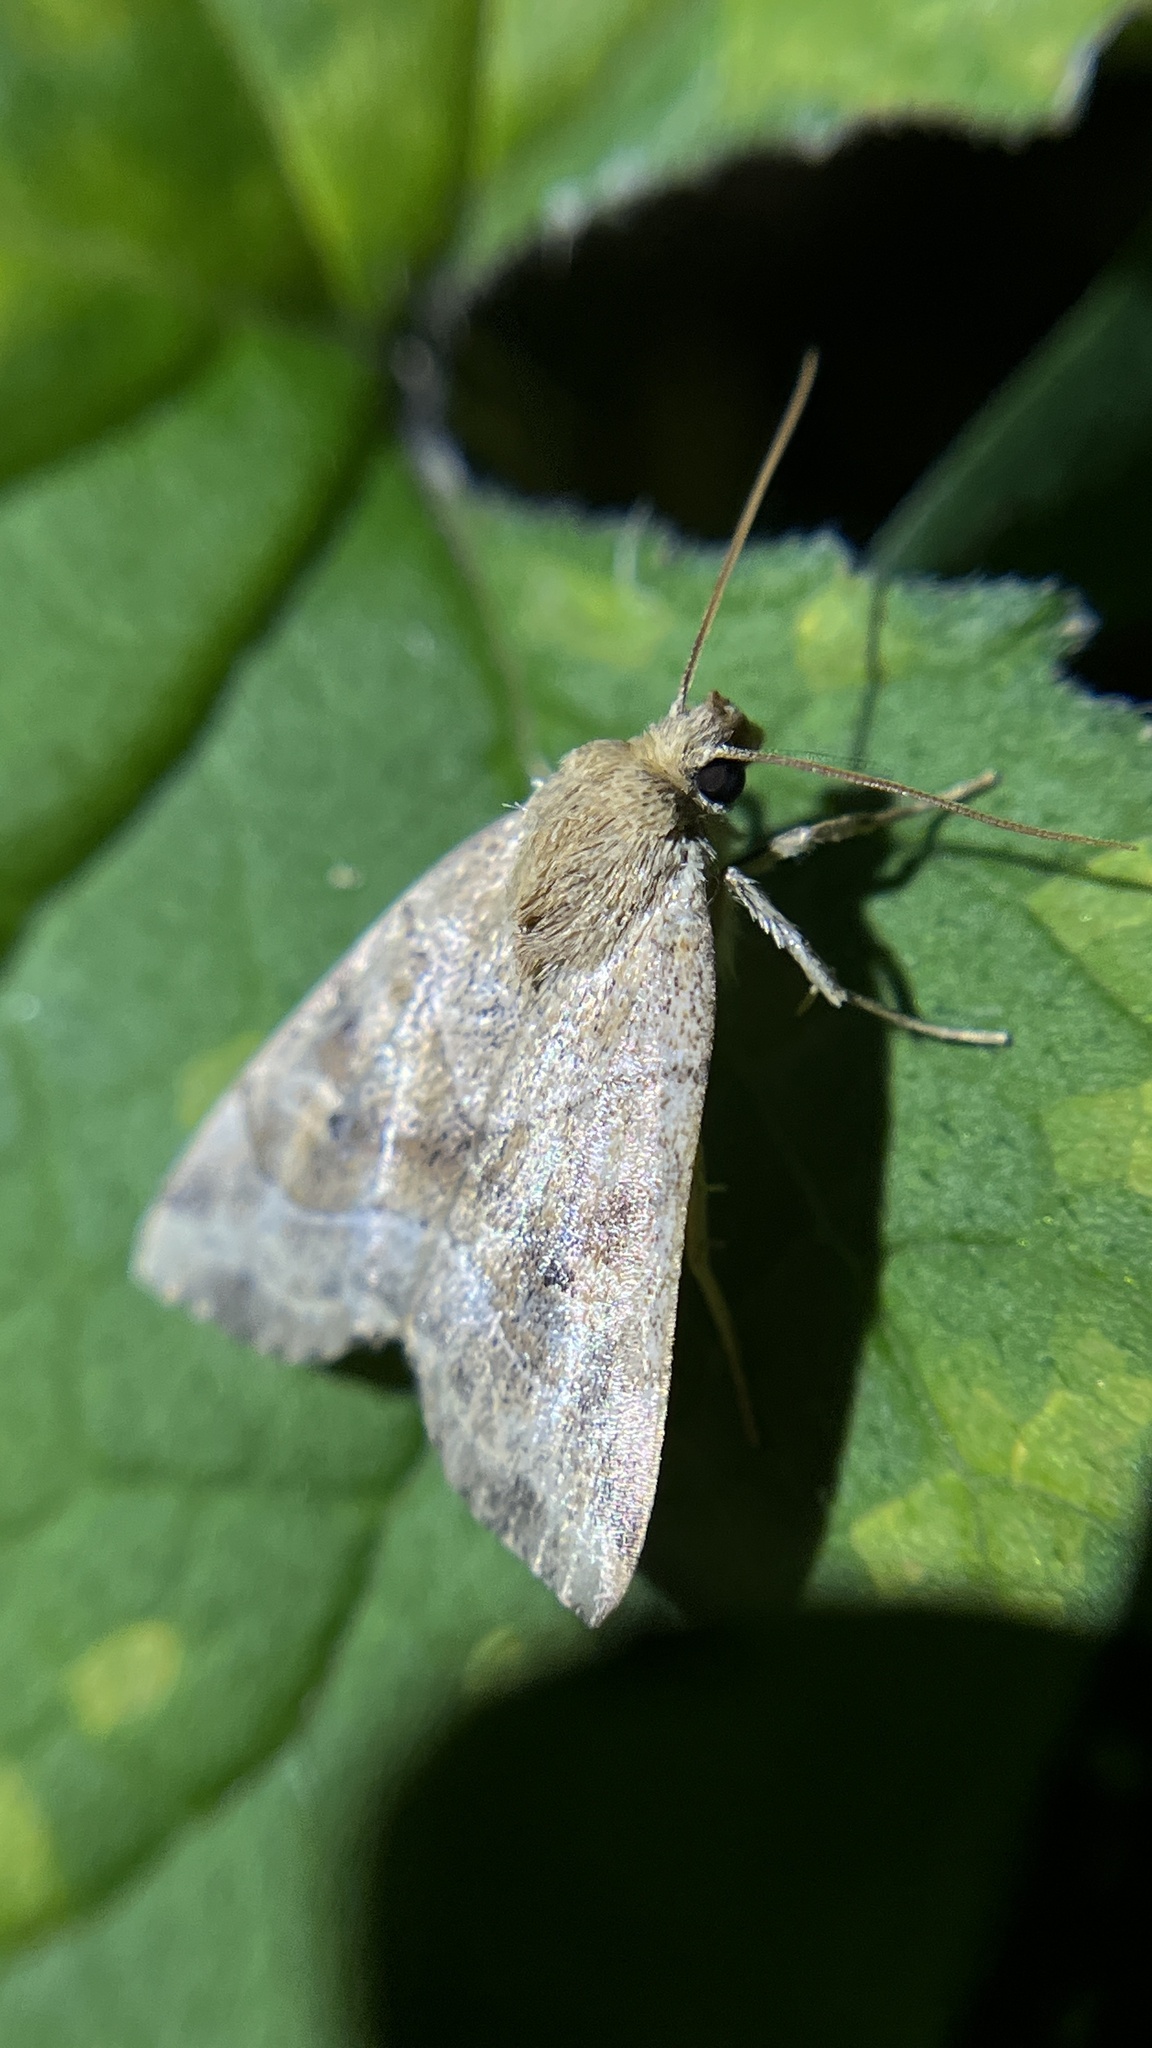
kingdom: Animalia
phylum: Arthropoda
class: Insecta
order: Lepidoptera
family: Noctuidae
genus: Cosmia
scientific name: Cosmia trapezina
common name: Dun-bar
